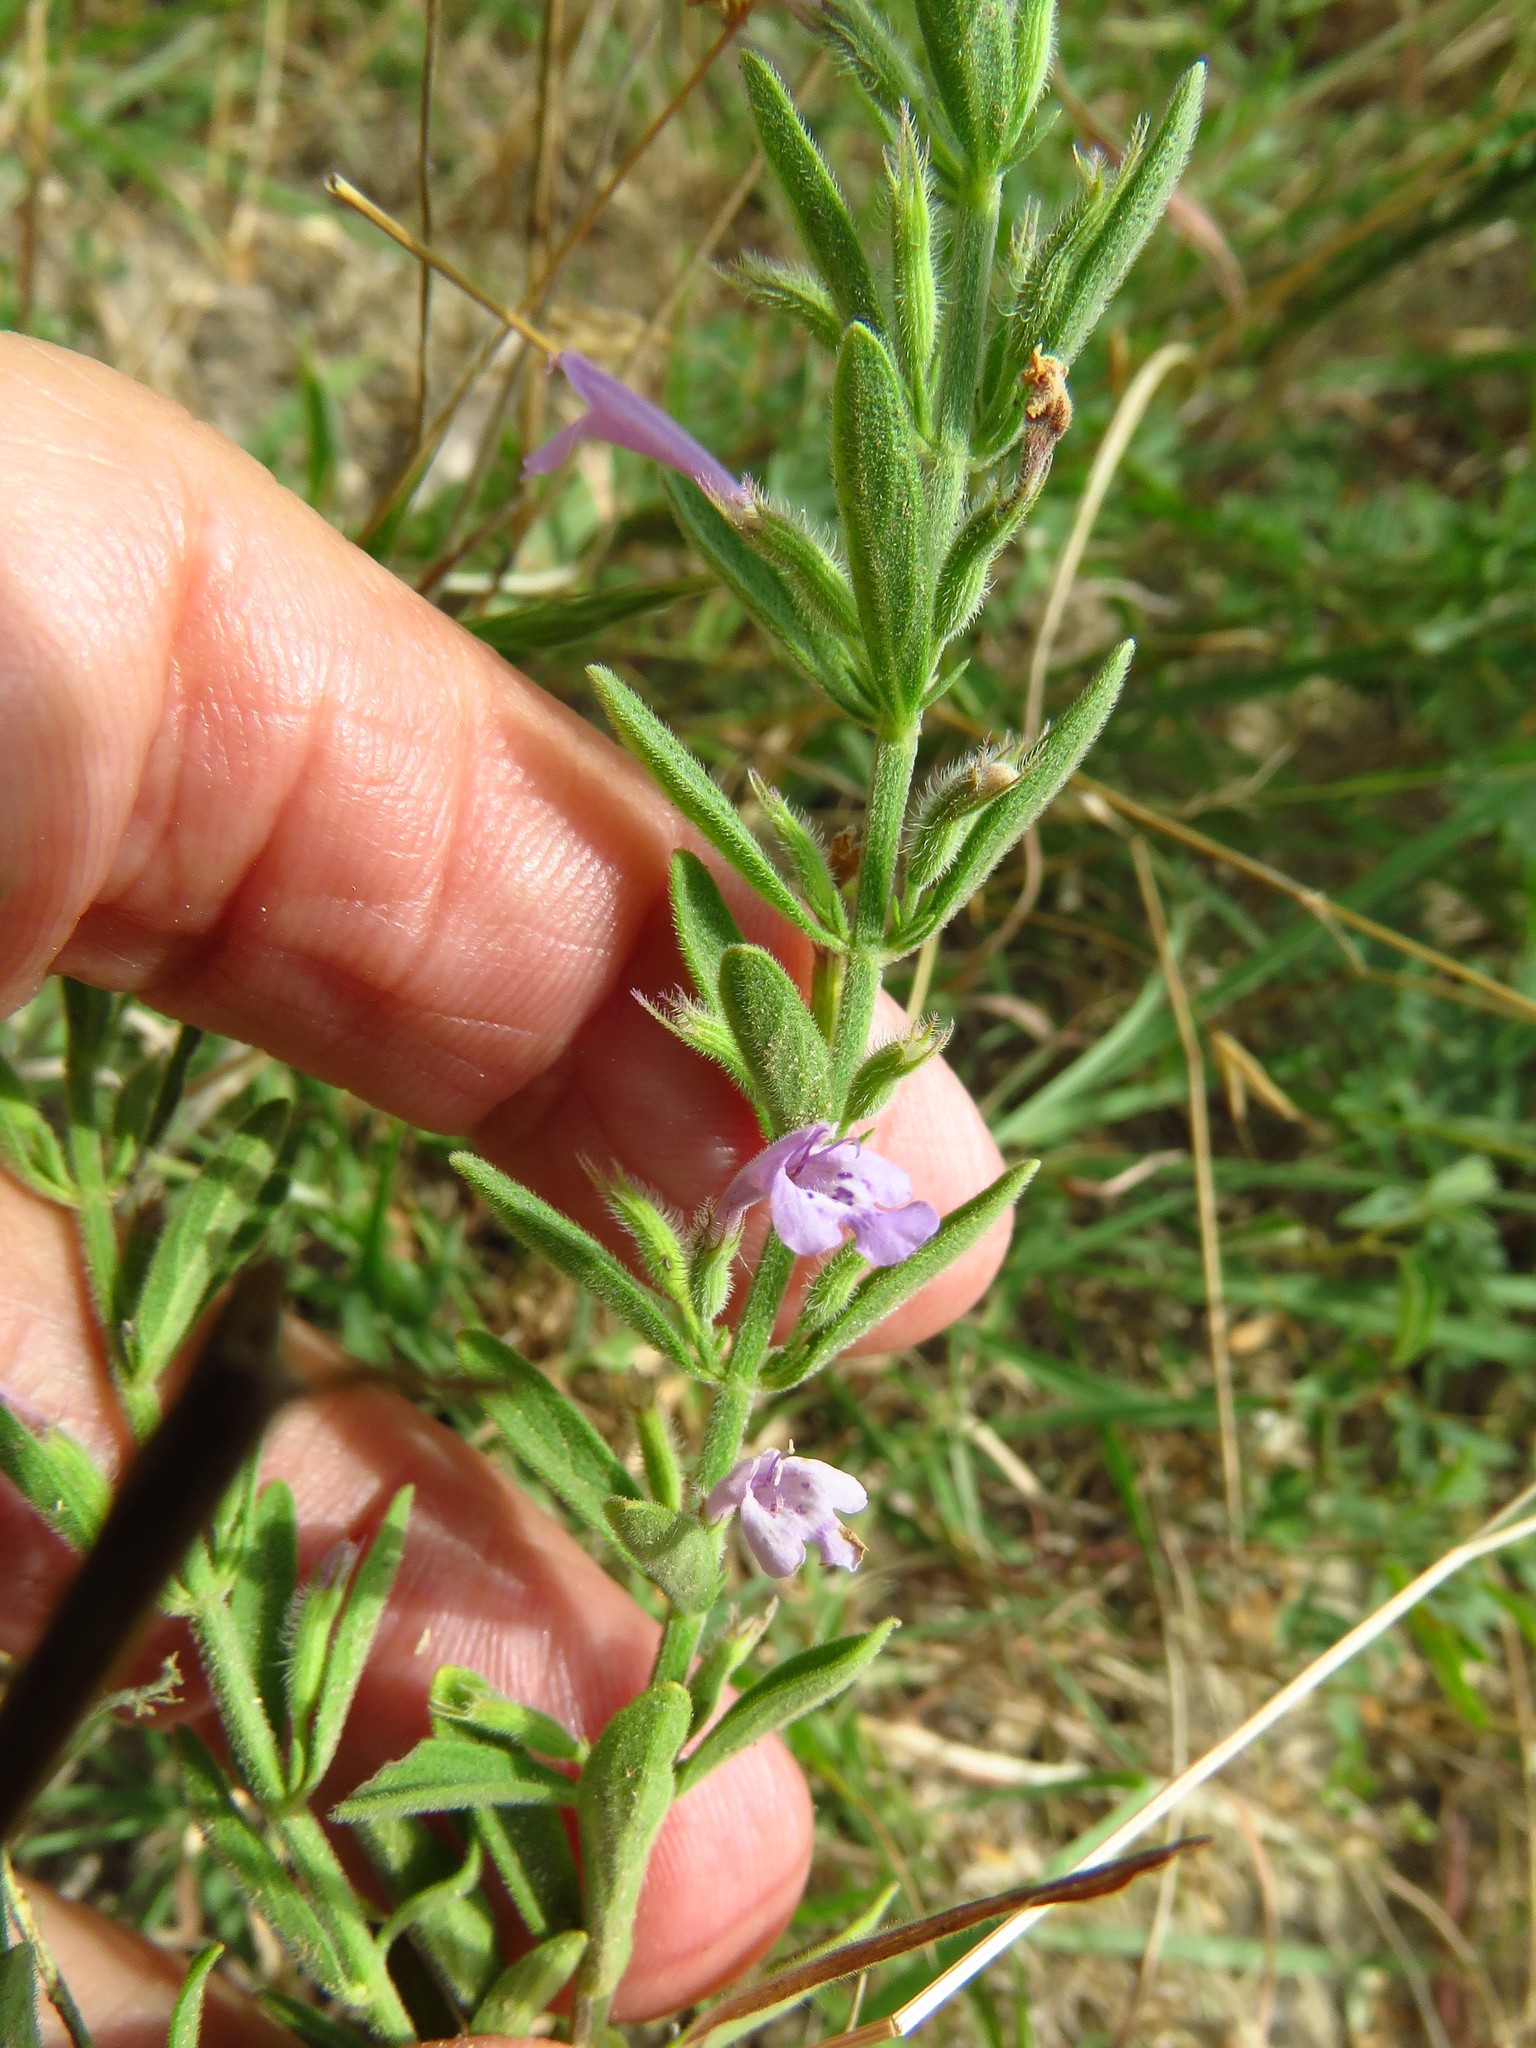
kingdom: Plantae
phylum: Tracheophyta
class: Magnoliopsida
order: Lamiales
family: Lamiaceae
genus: Hedeoma
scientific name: Hedeoma reverchonii
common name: Reverchon's false penny-royal
